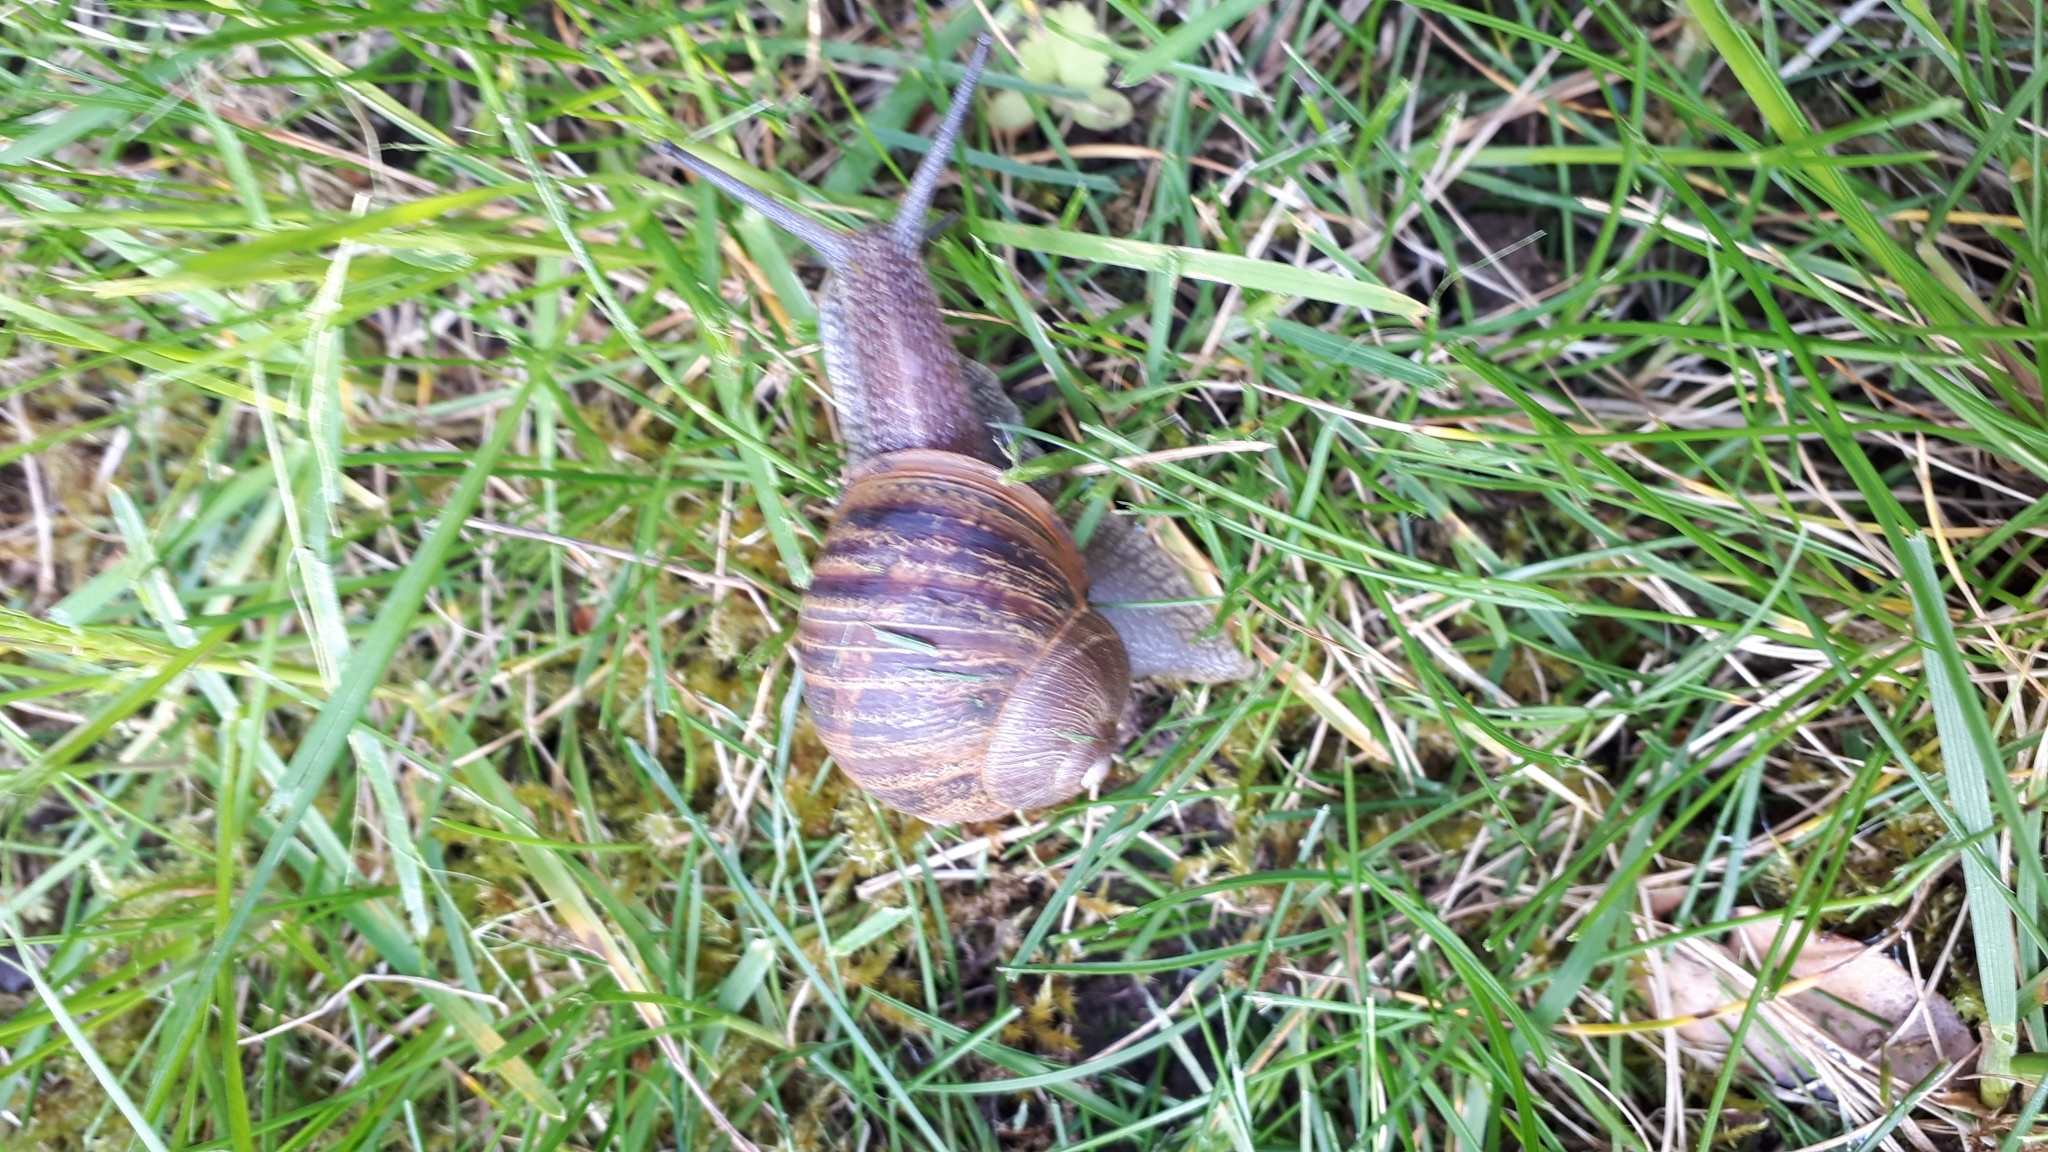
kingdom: Animalia
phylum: Mollusca
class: Gastropoda
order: Stylommatophora
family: Helicidae
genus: Cornu
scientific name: Cornu aspersum
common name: Brown garden snail
